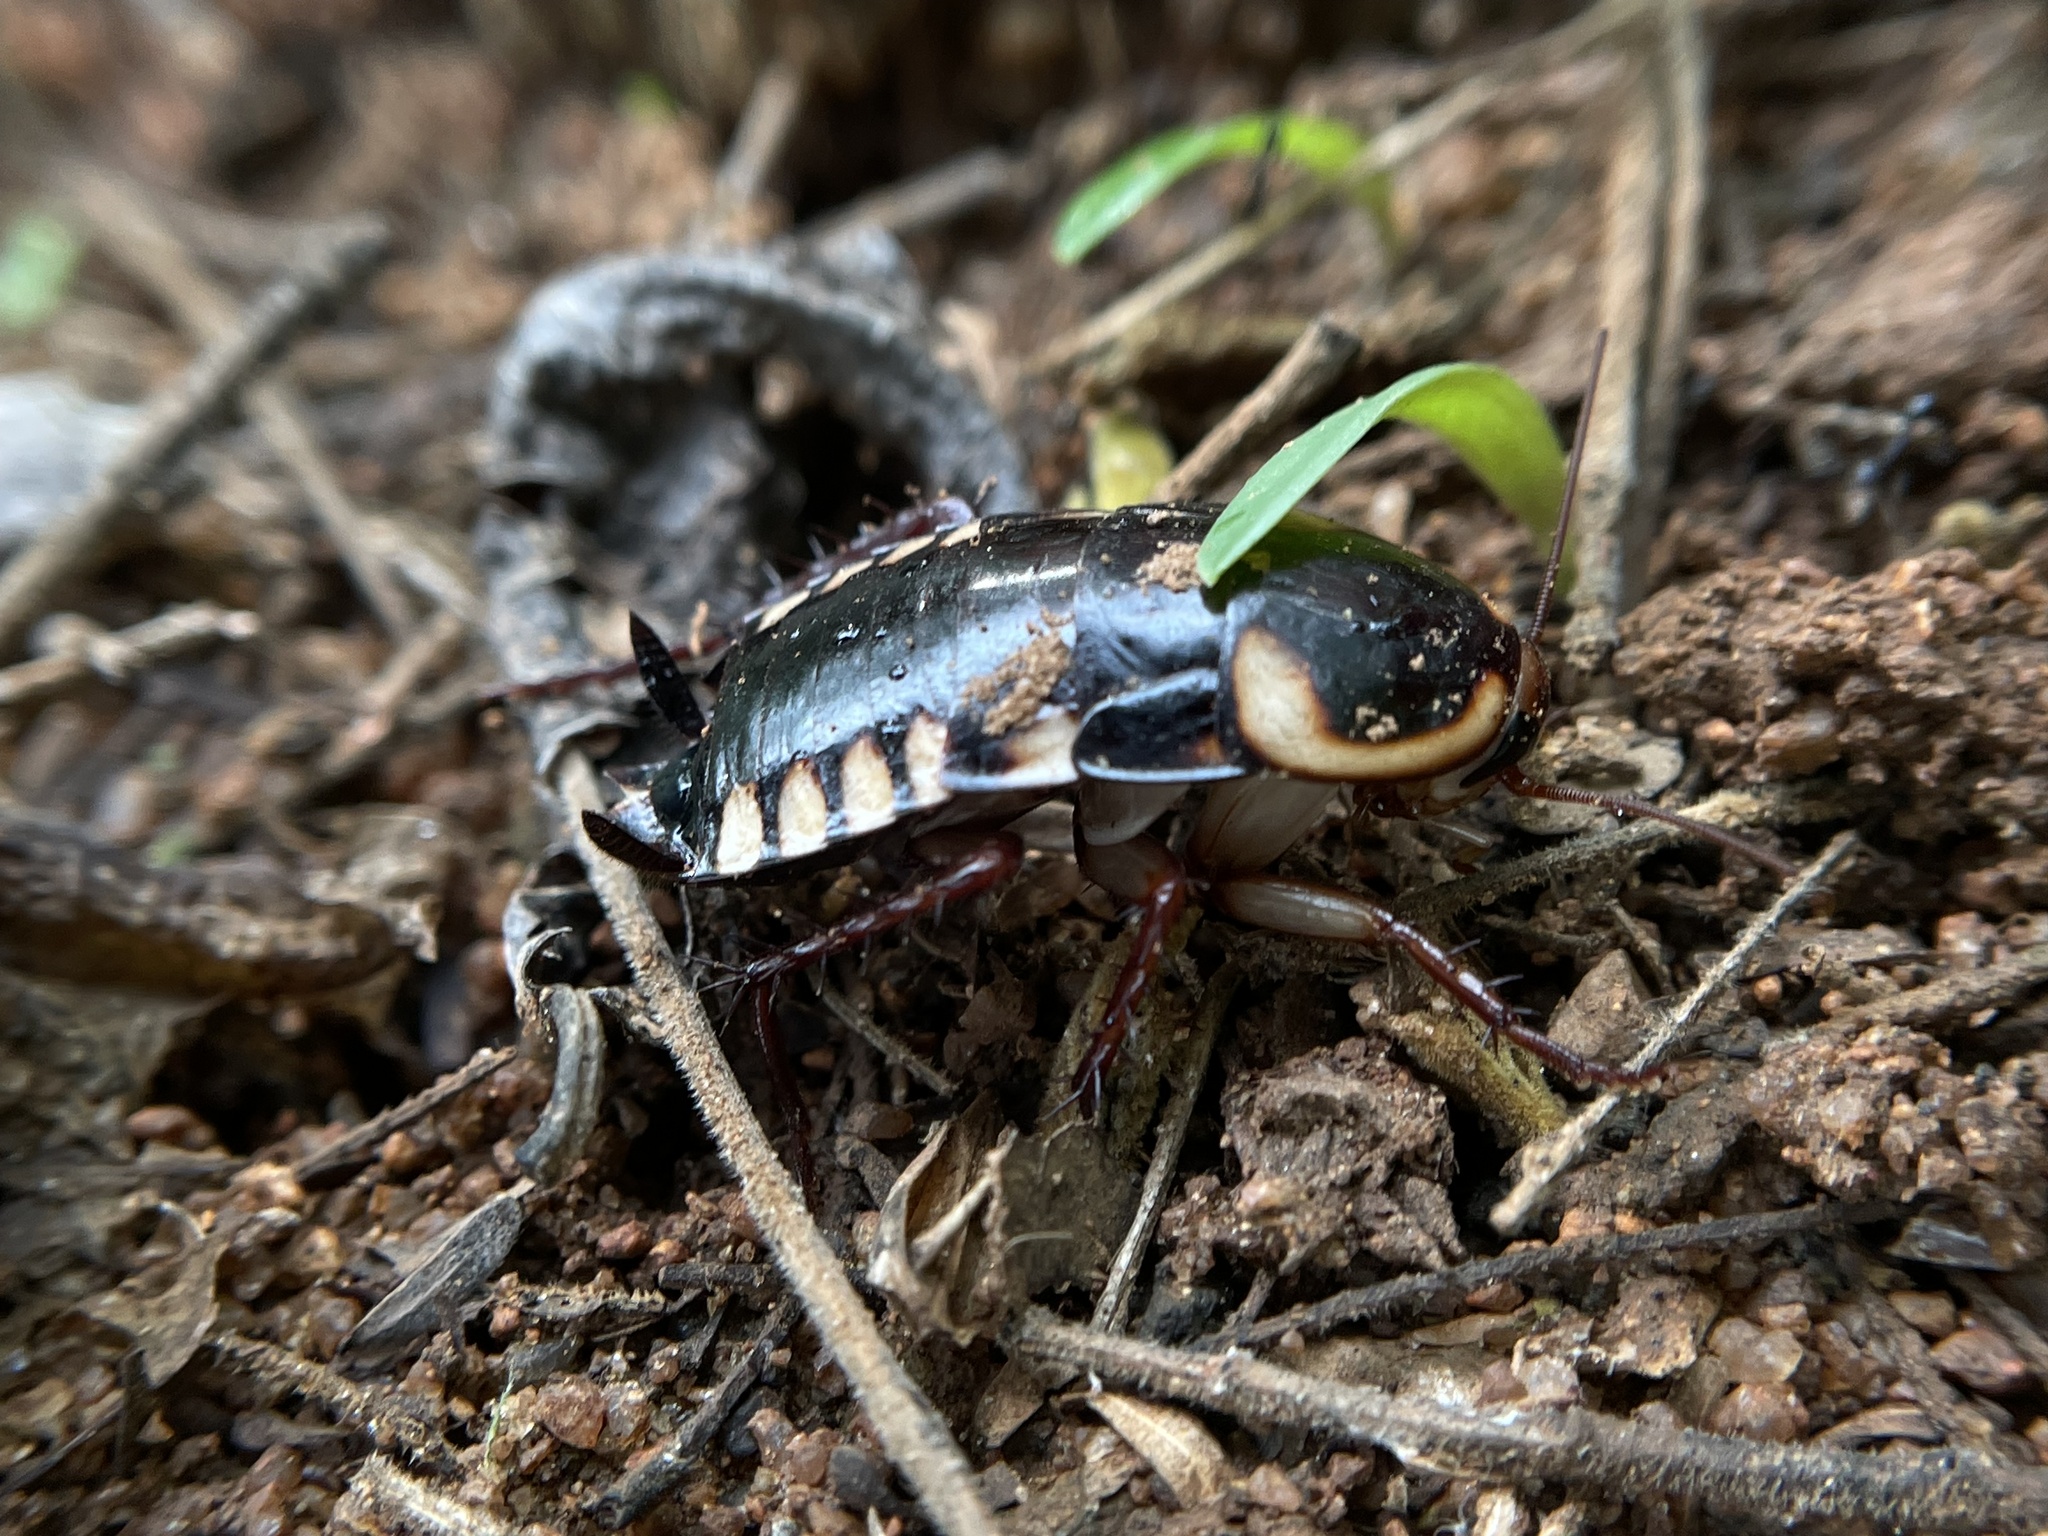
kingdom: Animalia
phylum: Arthropoda
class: Insecta
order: Blattodea
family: Blattidae
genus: Neostylopyga
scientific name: Neostylopyga ornata
